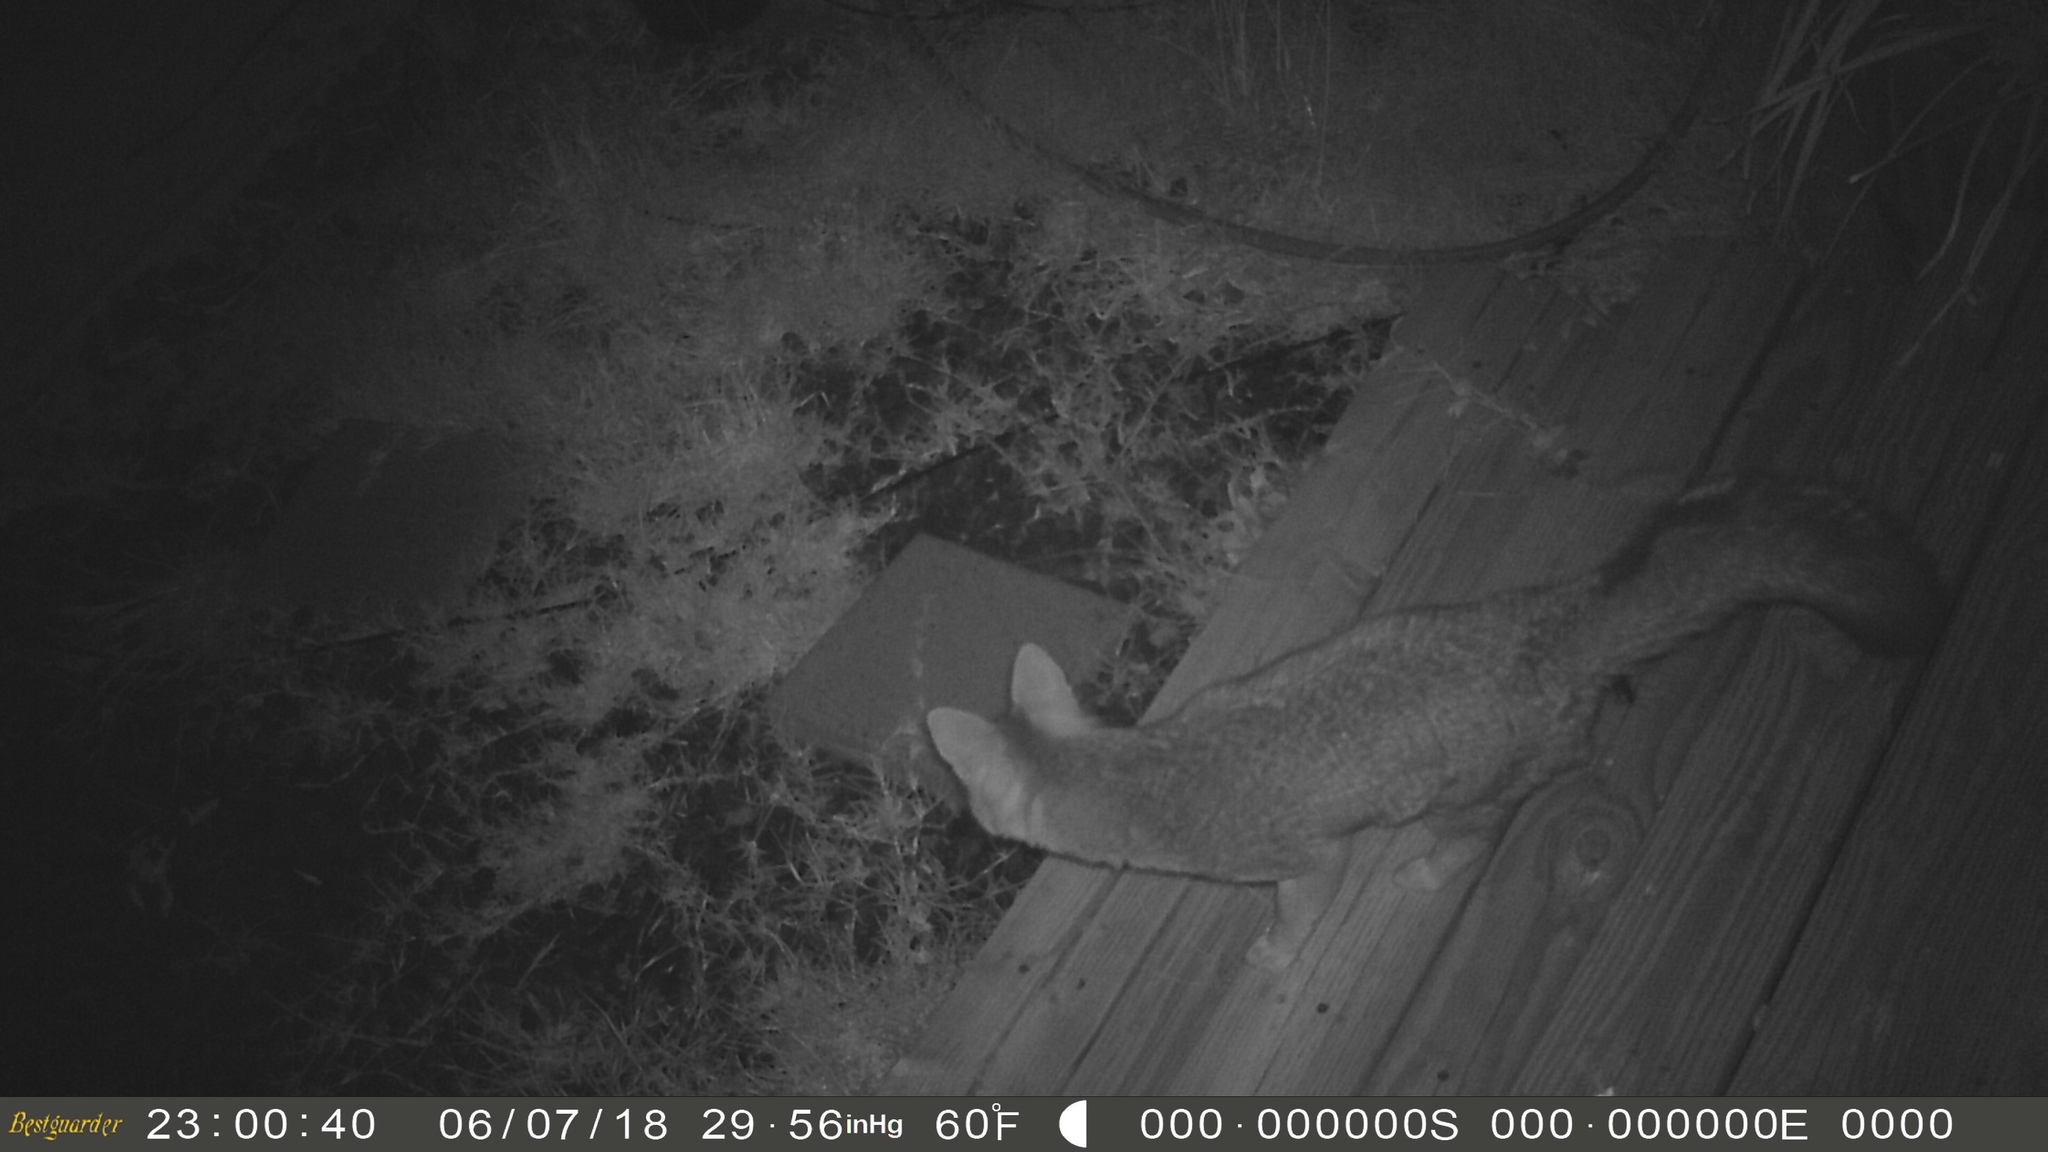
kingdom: Animalia
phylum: Chordata
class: Mammalia
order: Carnivora
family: Canidae
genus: Urocyon
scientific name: Urocyon cinereoargenteus
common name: Gray fox
